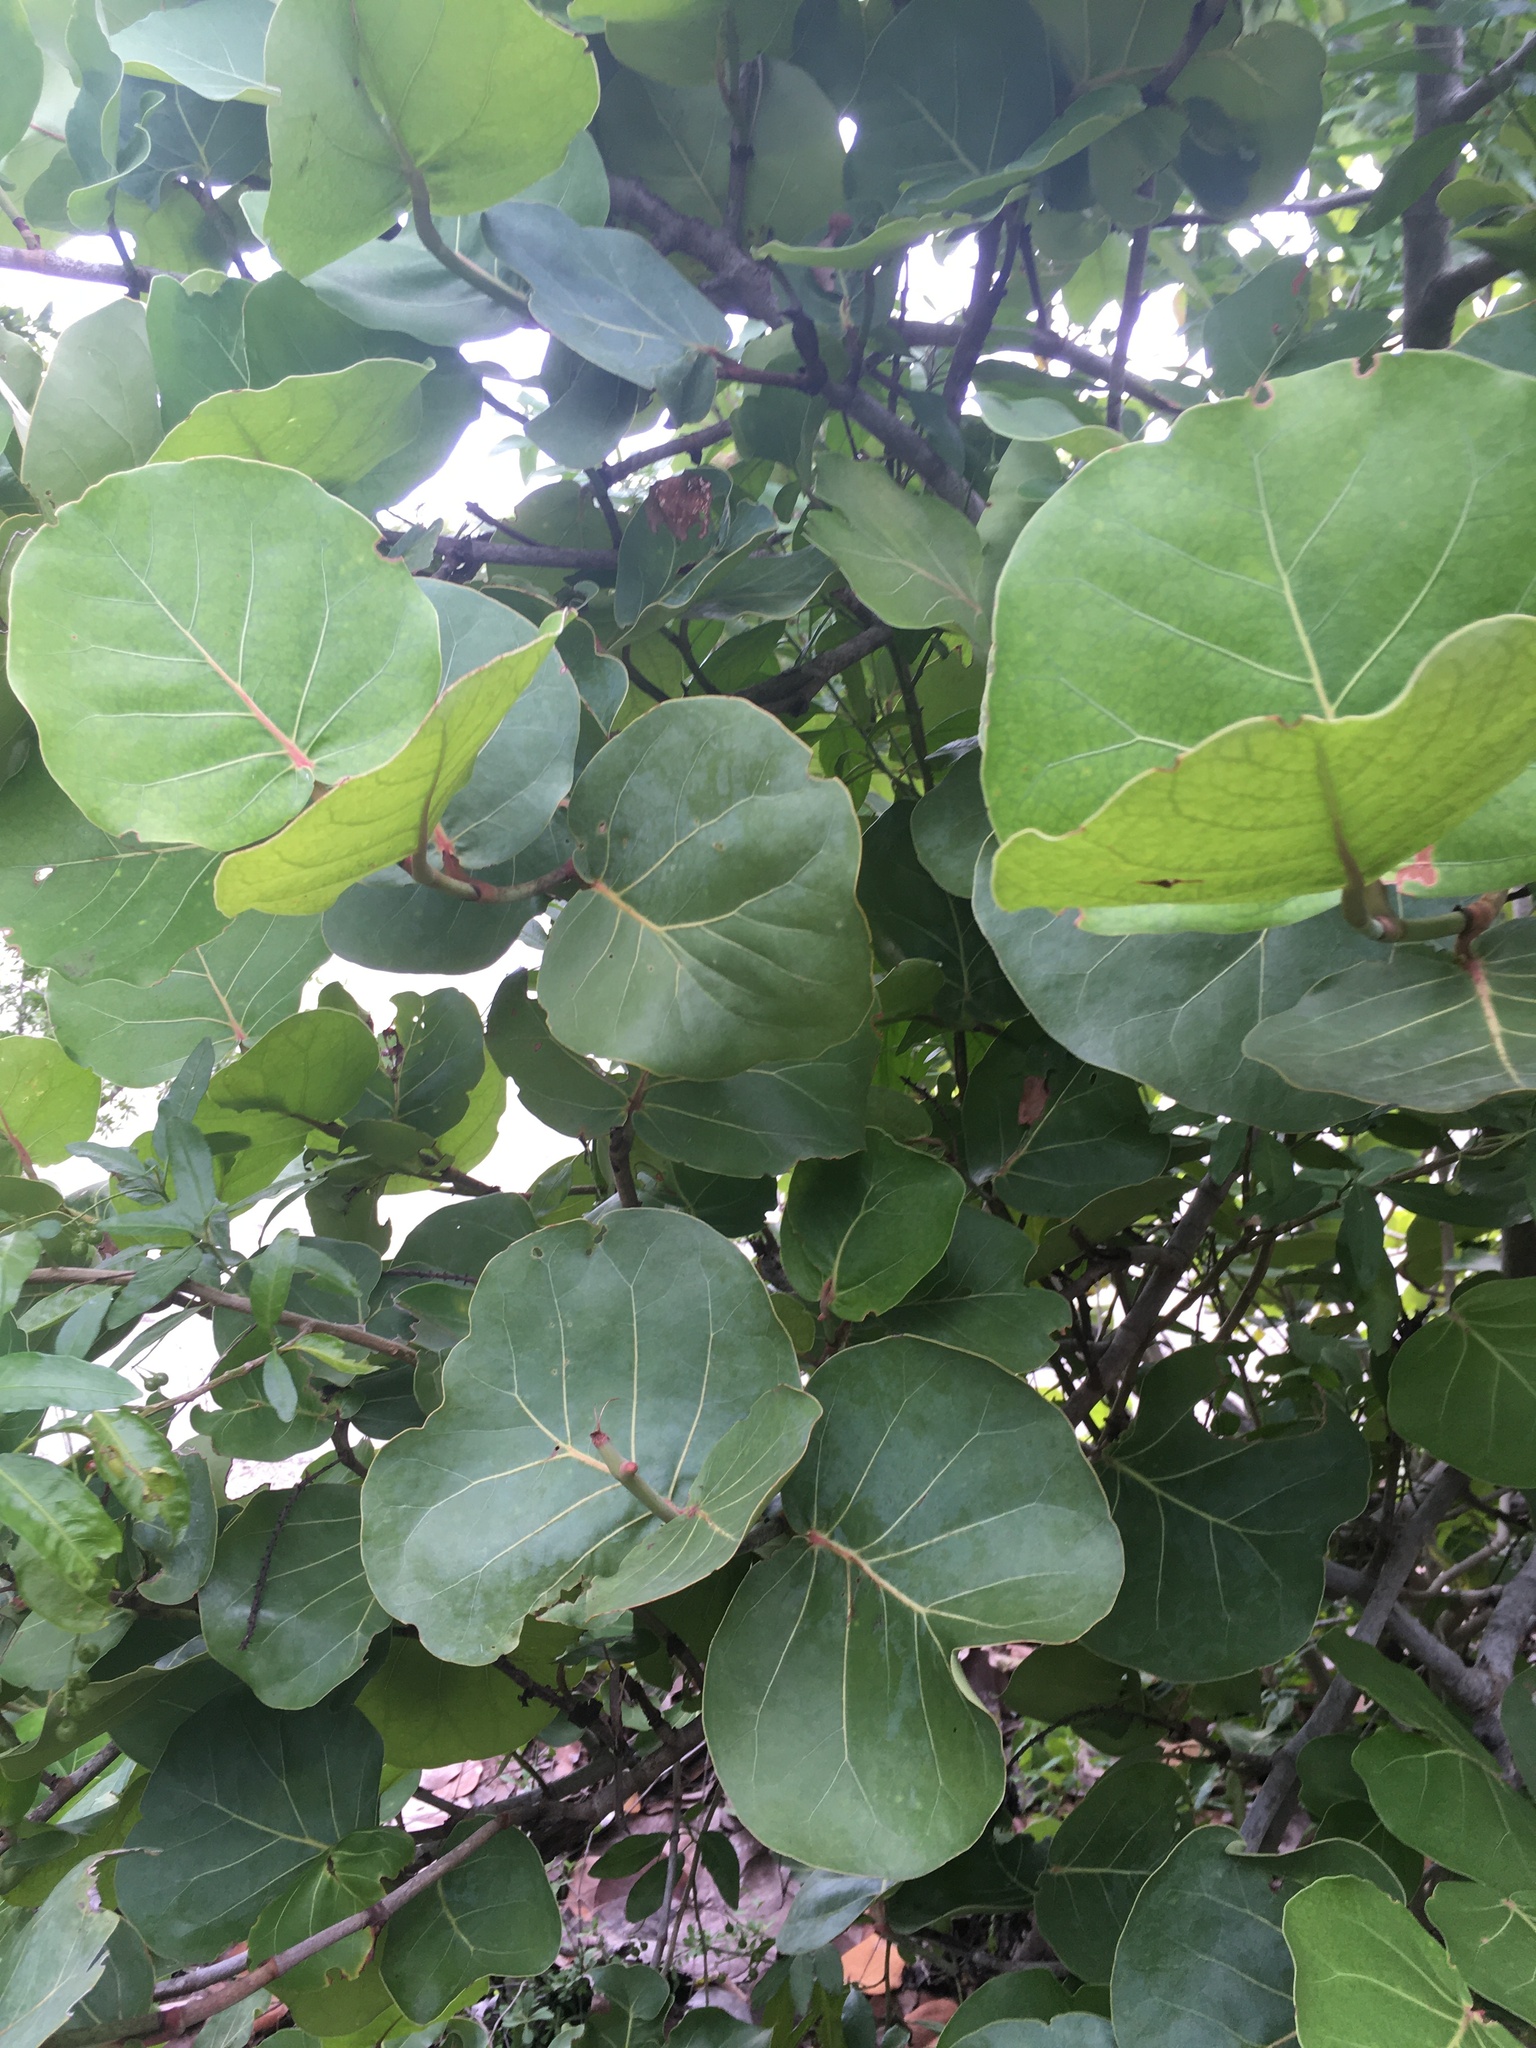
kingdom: Plantae
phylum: Tracheophyta
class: Magnoliopsida
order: Caryophyllales
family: Polygonaceae
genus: Coccoloba
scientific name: Coccoloba uvifera
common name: Seagrape
